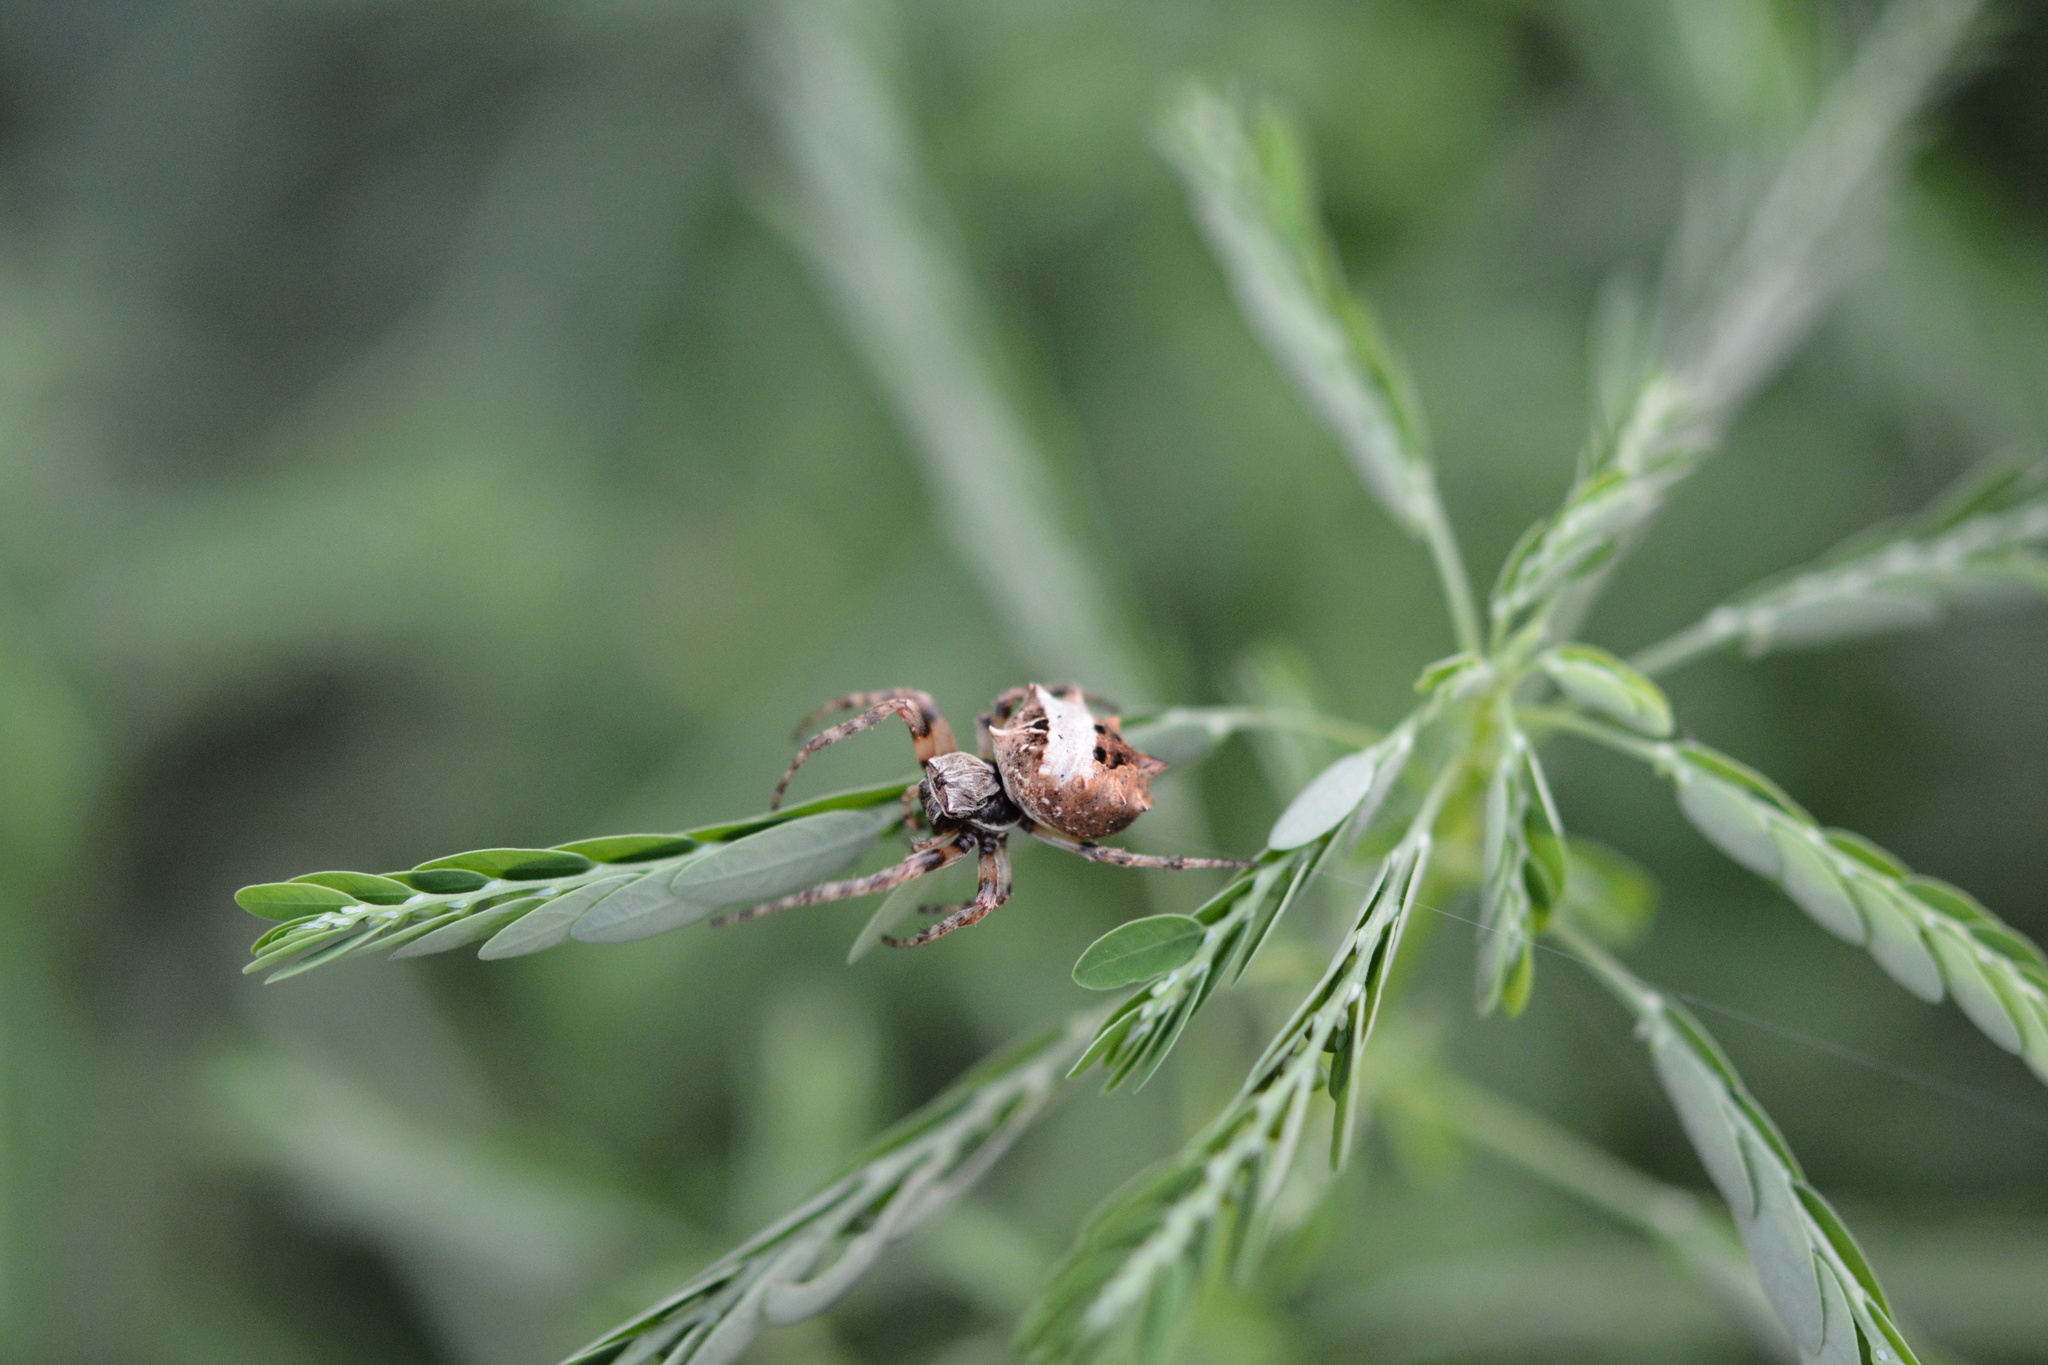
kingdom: Animalia
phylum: Arthropoda
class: Arachnida
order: Araneae
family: Araneidae
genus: Acanthepeira
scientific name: Acanthepeira stellata
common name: Starbellied orbweaver
